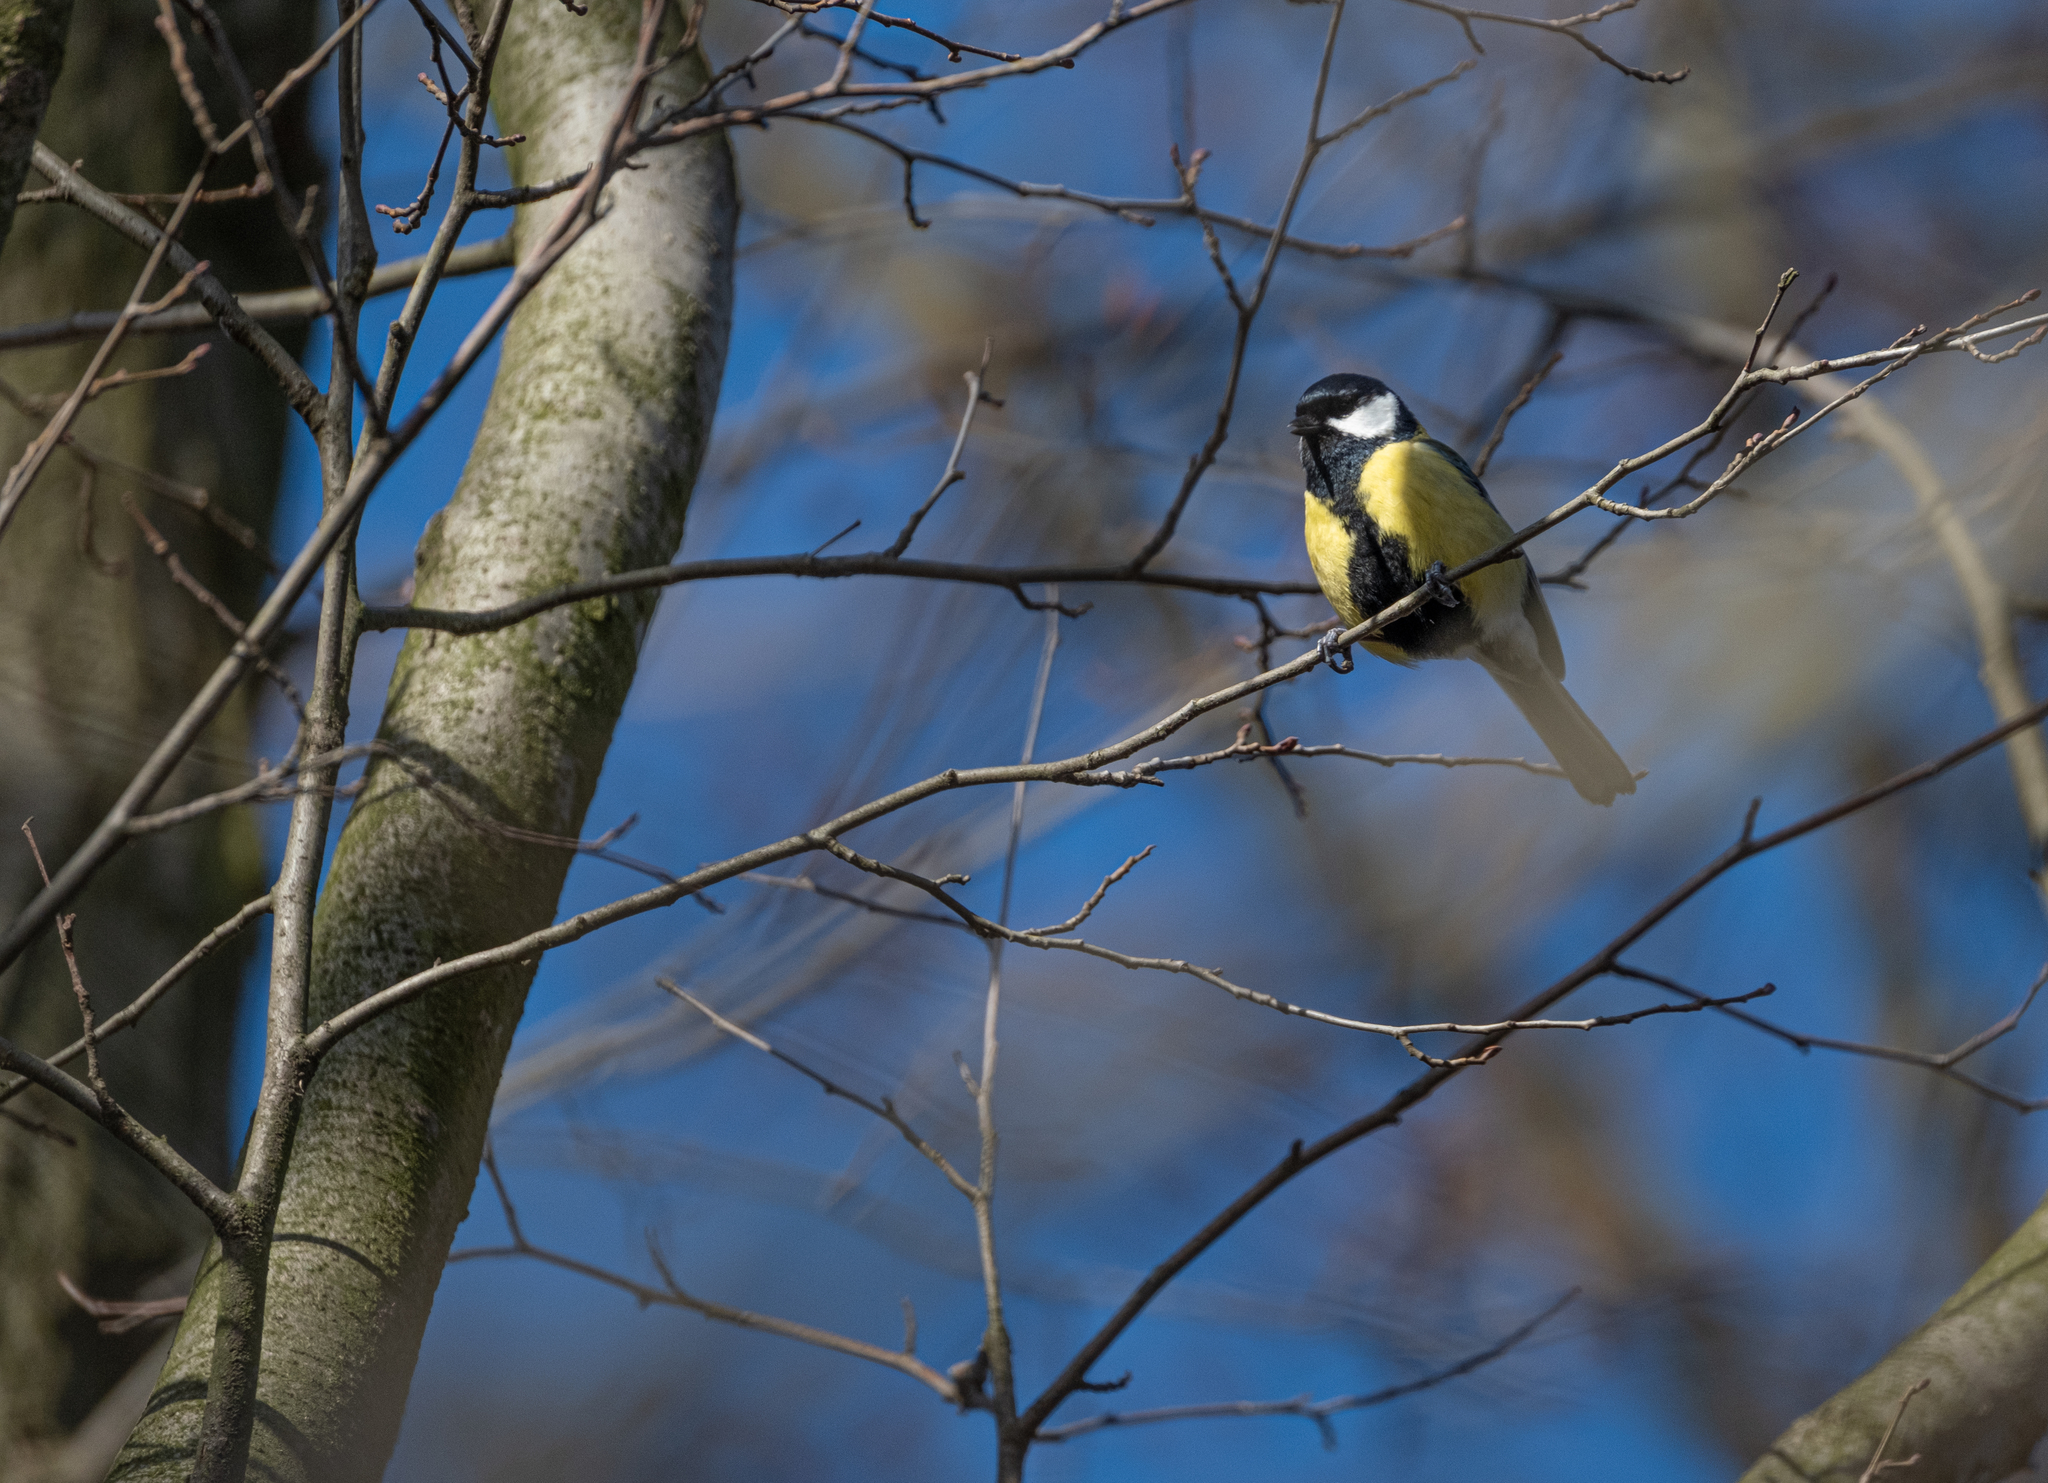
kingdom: Animalia
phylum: Chordata
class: Aves
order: Passeriformes
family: Paridae
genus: Parus
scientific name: Parus major
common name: Great tit
